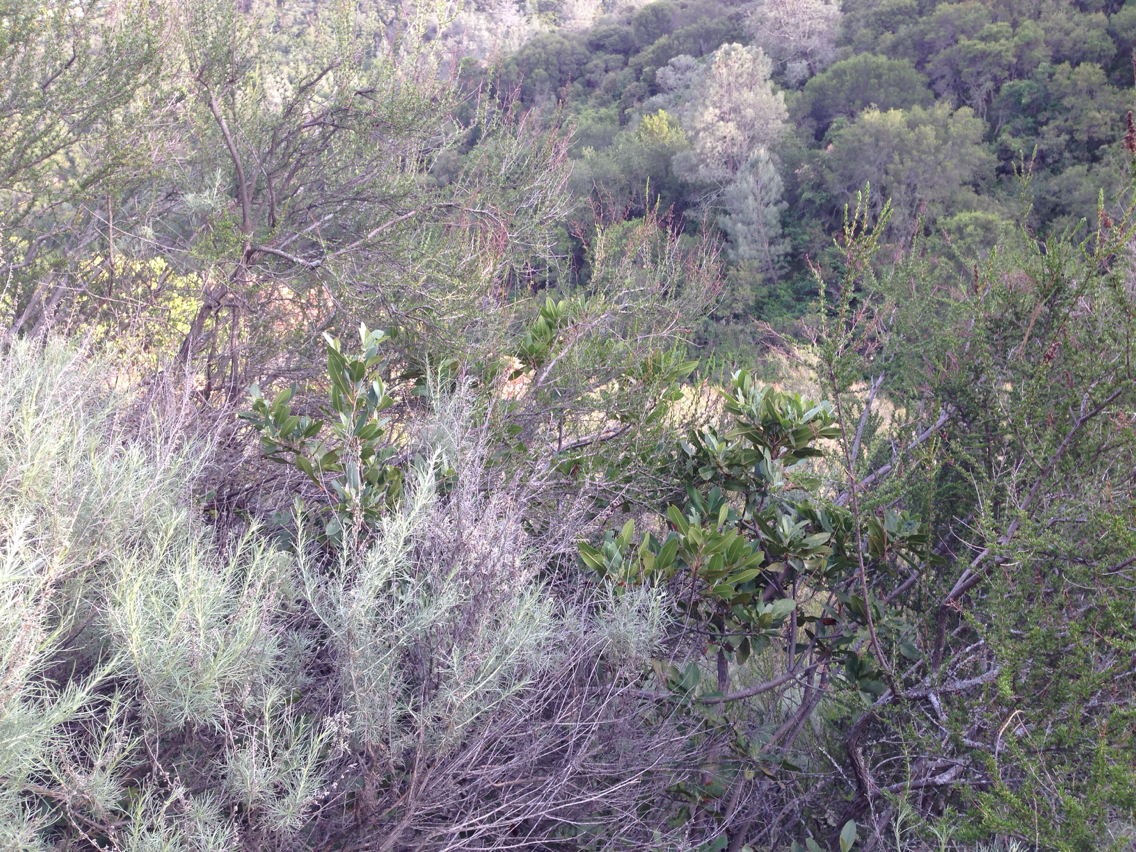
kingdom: Plantae
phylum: Tracheophyta
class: Magnoliopsida
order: Rosales
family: Rosaceae
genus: Adenostoma
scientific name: Adenostoma fasciculatum
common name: Chamise
